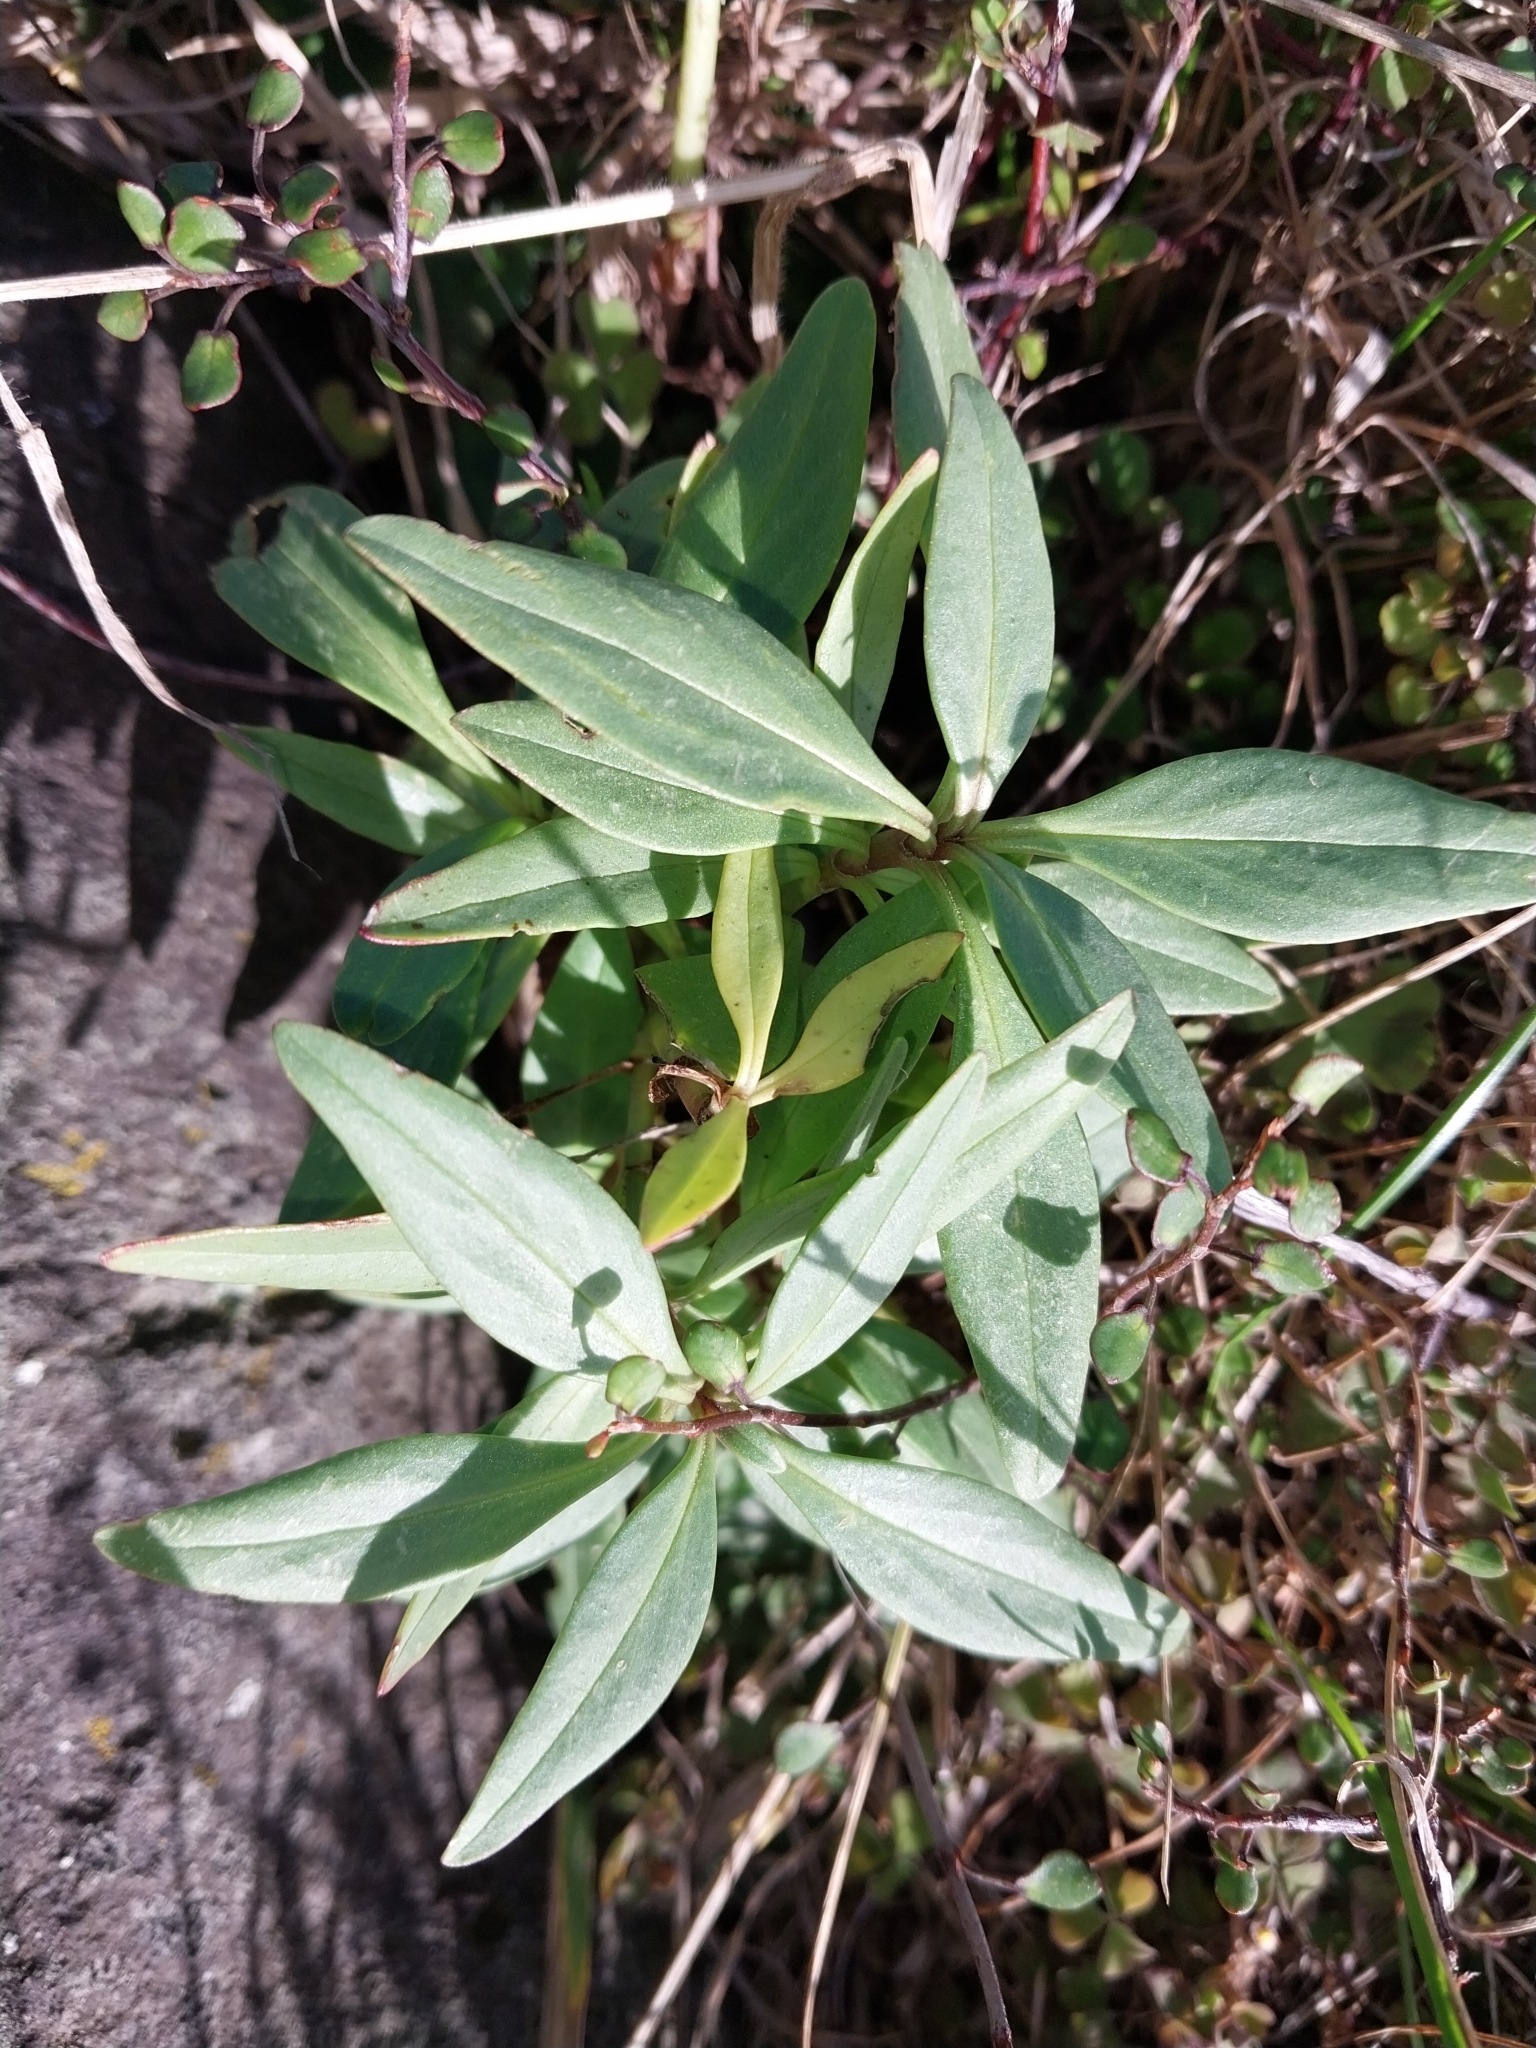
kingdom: Plantae
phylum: Tracheophyta
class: Magnoliopsida
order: Dipsacales
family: Caprifoliaceae
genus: Centranthus
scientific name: Centranthus ruber
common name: Red valerian
